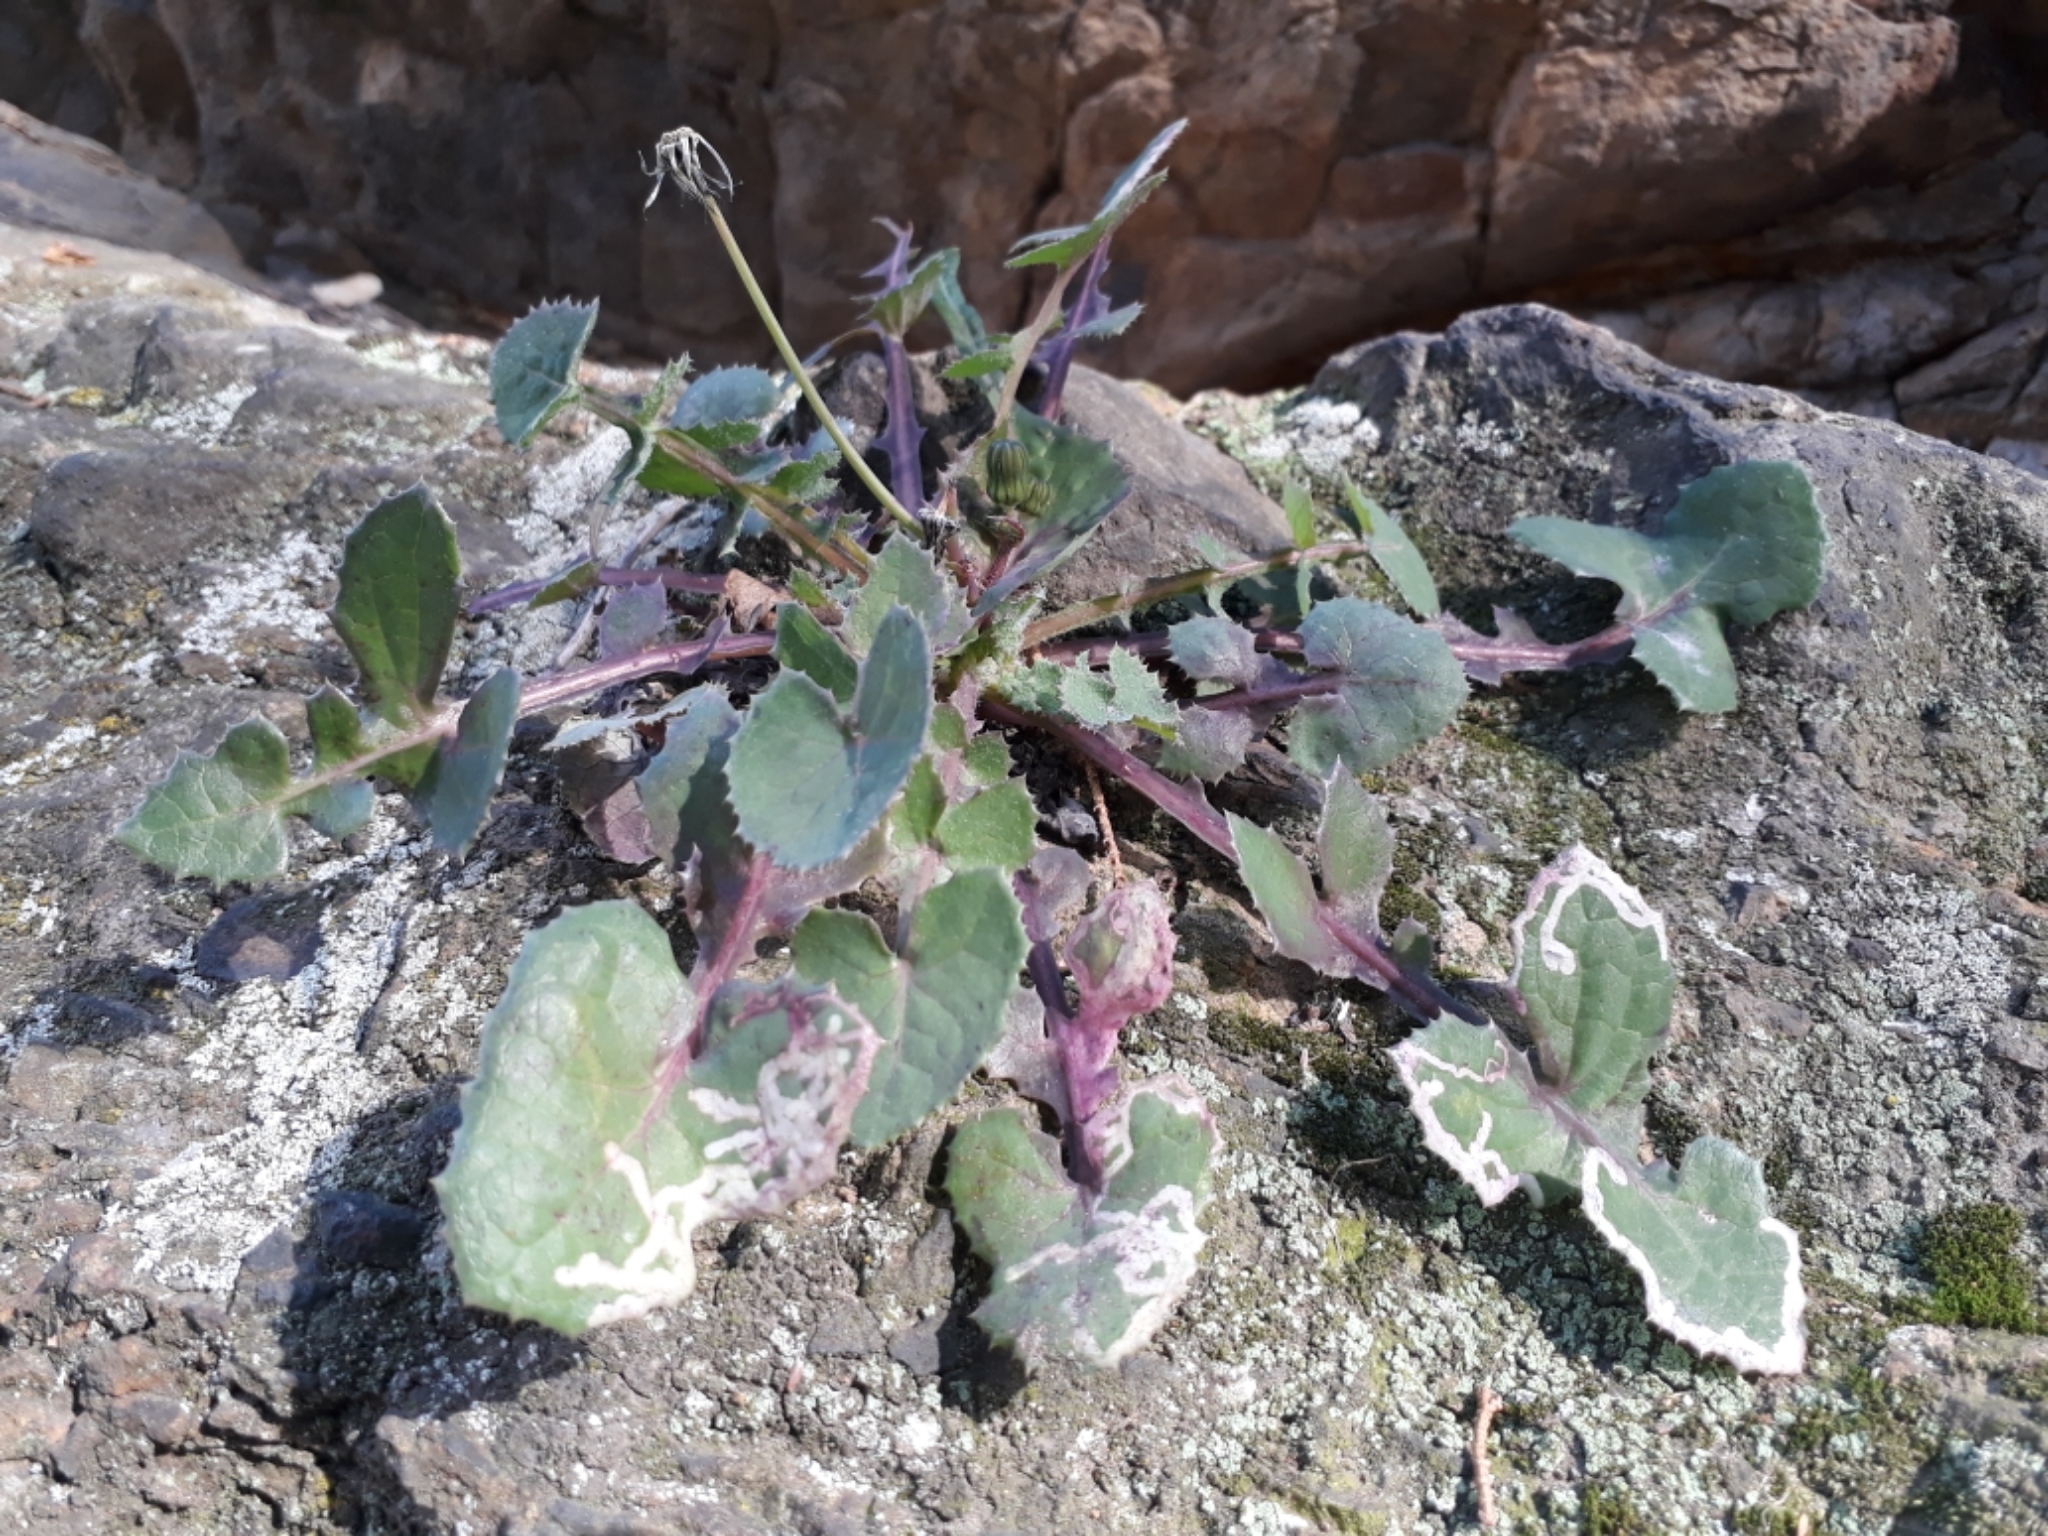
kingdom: Plantae
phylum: Tracheophyta
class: Magnoliopsida
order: Asterales
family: Asteraceae
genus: Sonchus
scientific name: Sonchus oleraceus
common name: Common sowthistle
